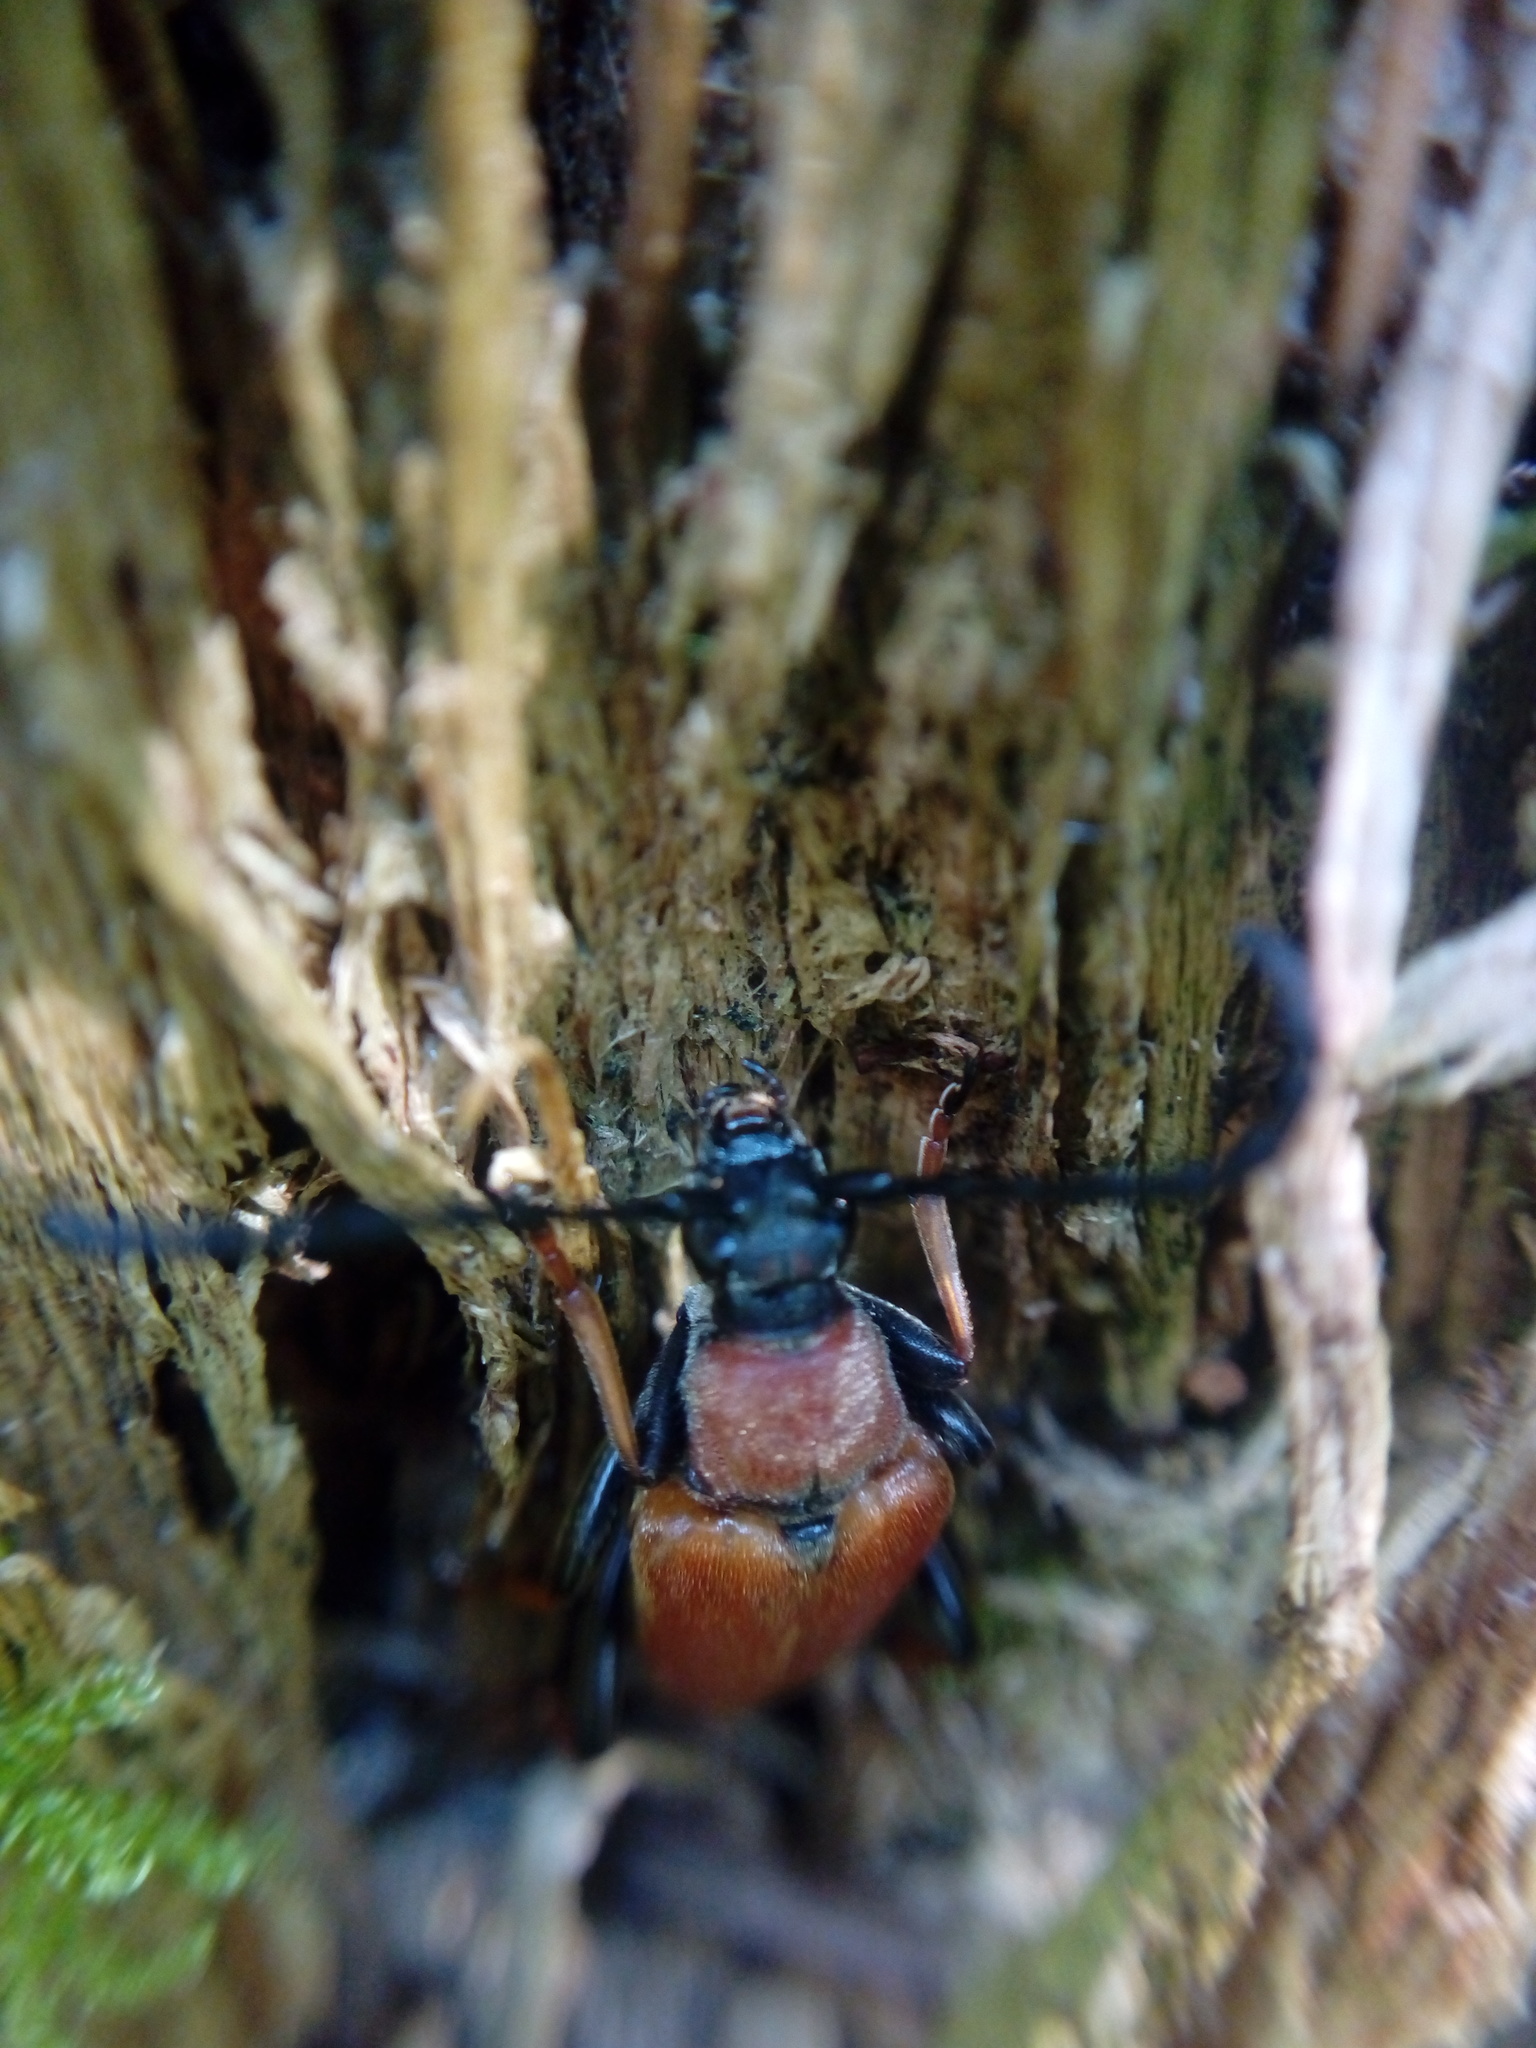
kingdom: Animalia
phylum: Arthropoda
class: Insecta
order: Coleoptera
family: Cerambycidae
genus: Stictoleptura
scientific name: Stictoleptura rubra
